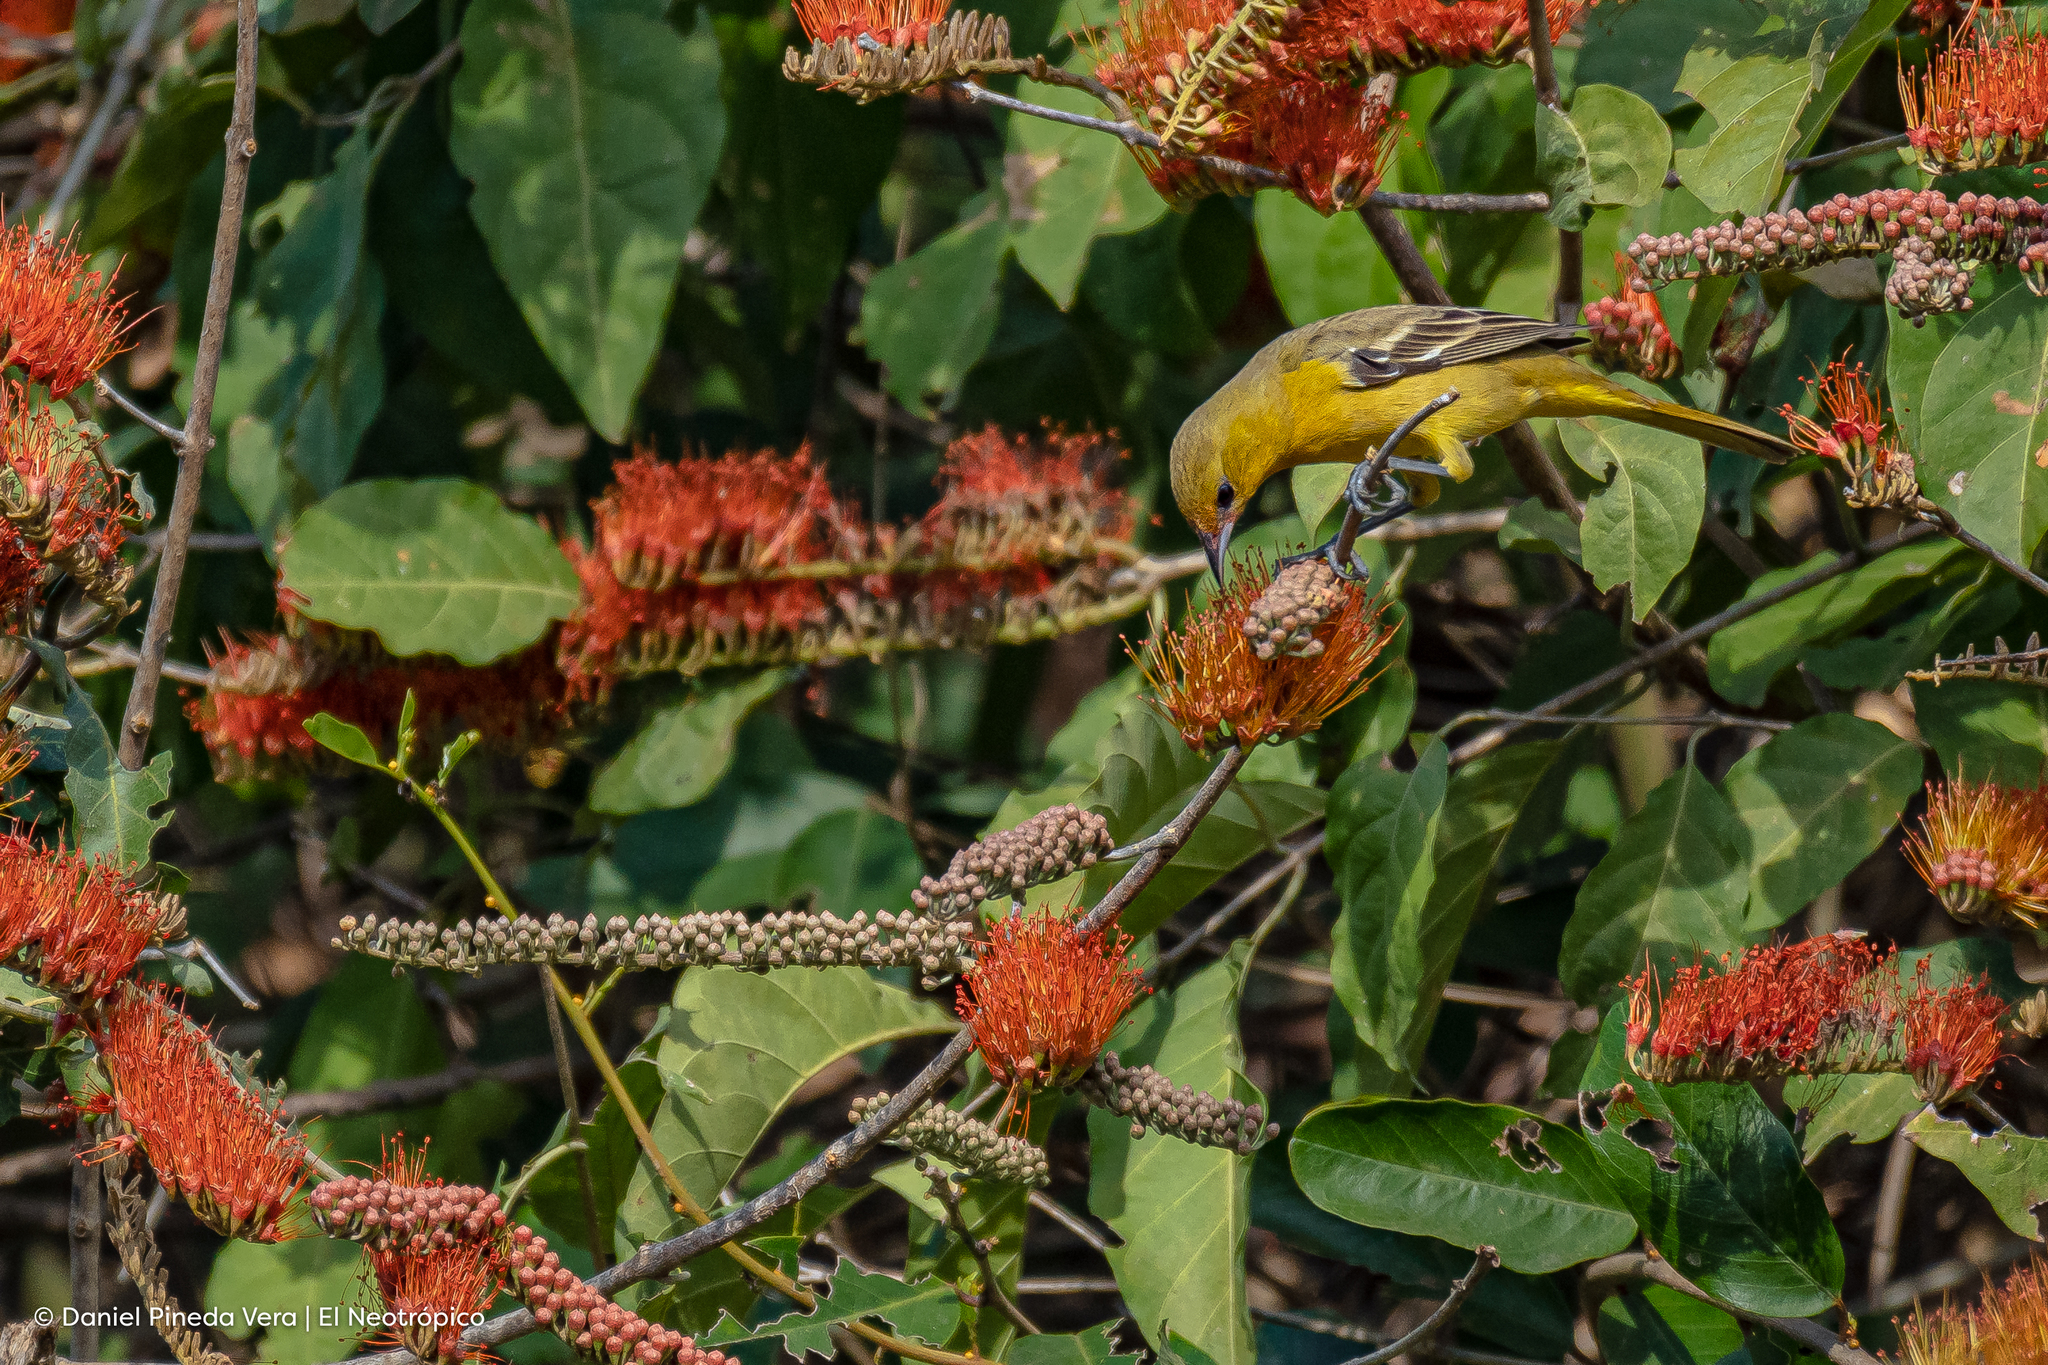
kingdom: Animalia
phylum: Chordata
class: Aves
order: Passeriformes
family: Icteridae
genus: Icterus
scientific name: Icterus spurius
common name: Orchard oriole
